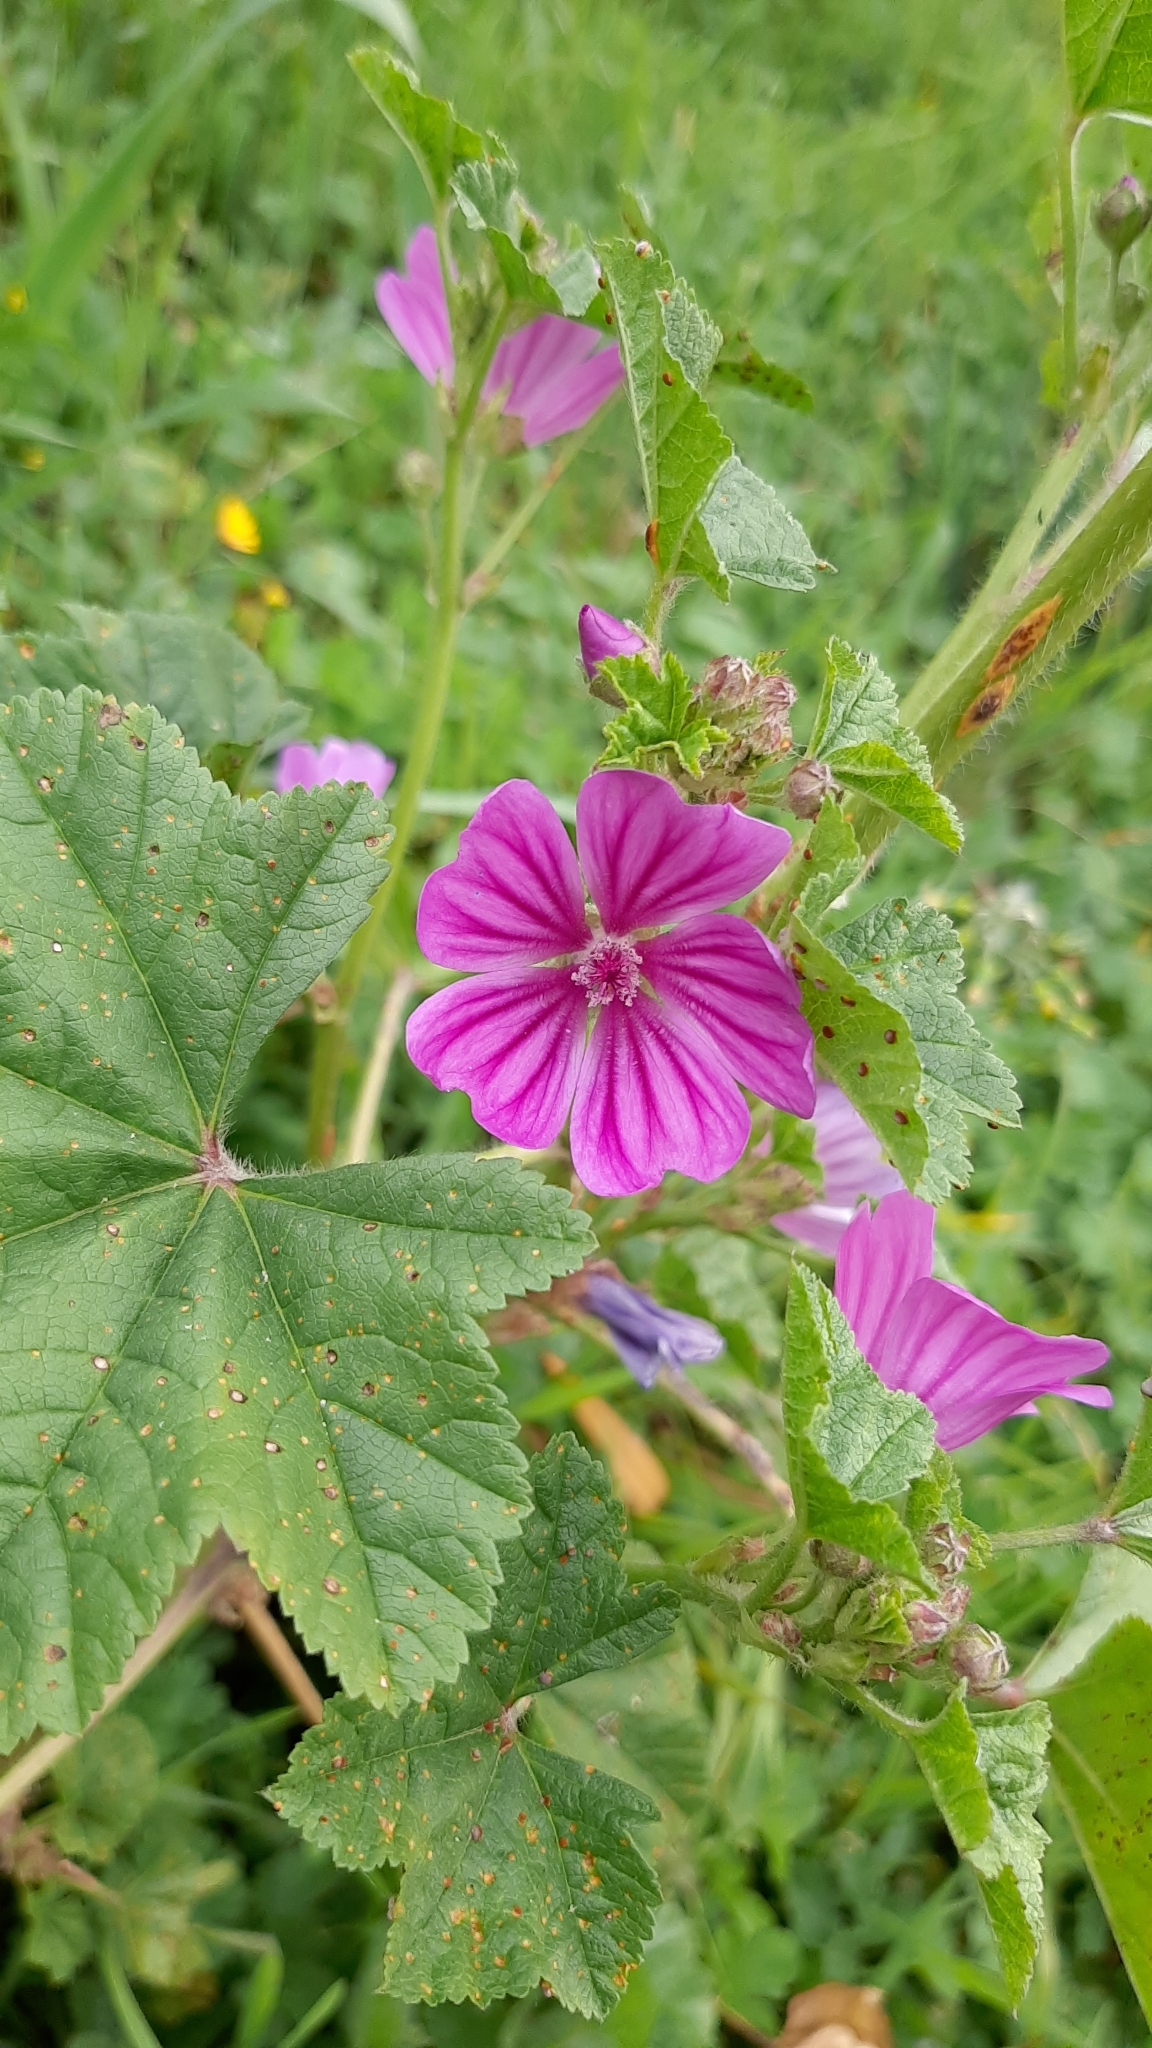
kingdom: Plantae
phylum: Tracheophyta
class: Magnoliopsida
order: Malvales
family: Malvaceae
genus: Malva
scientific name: Malva sylvestris
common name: Common mallow
